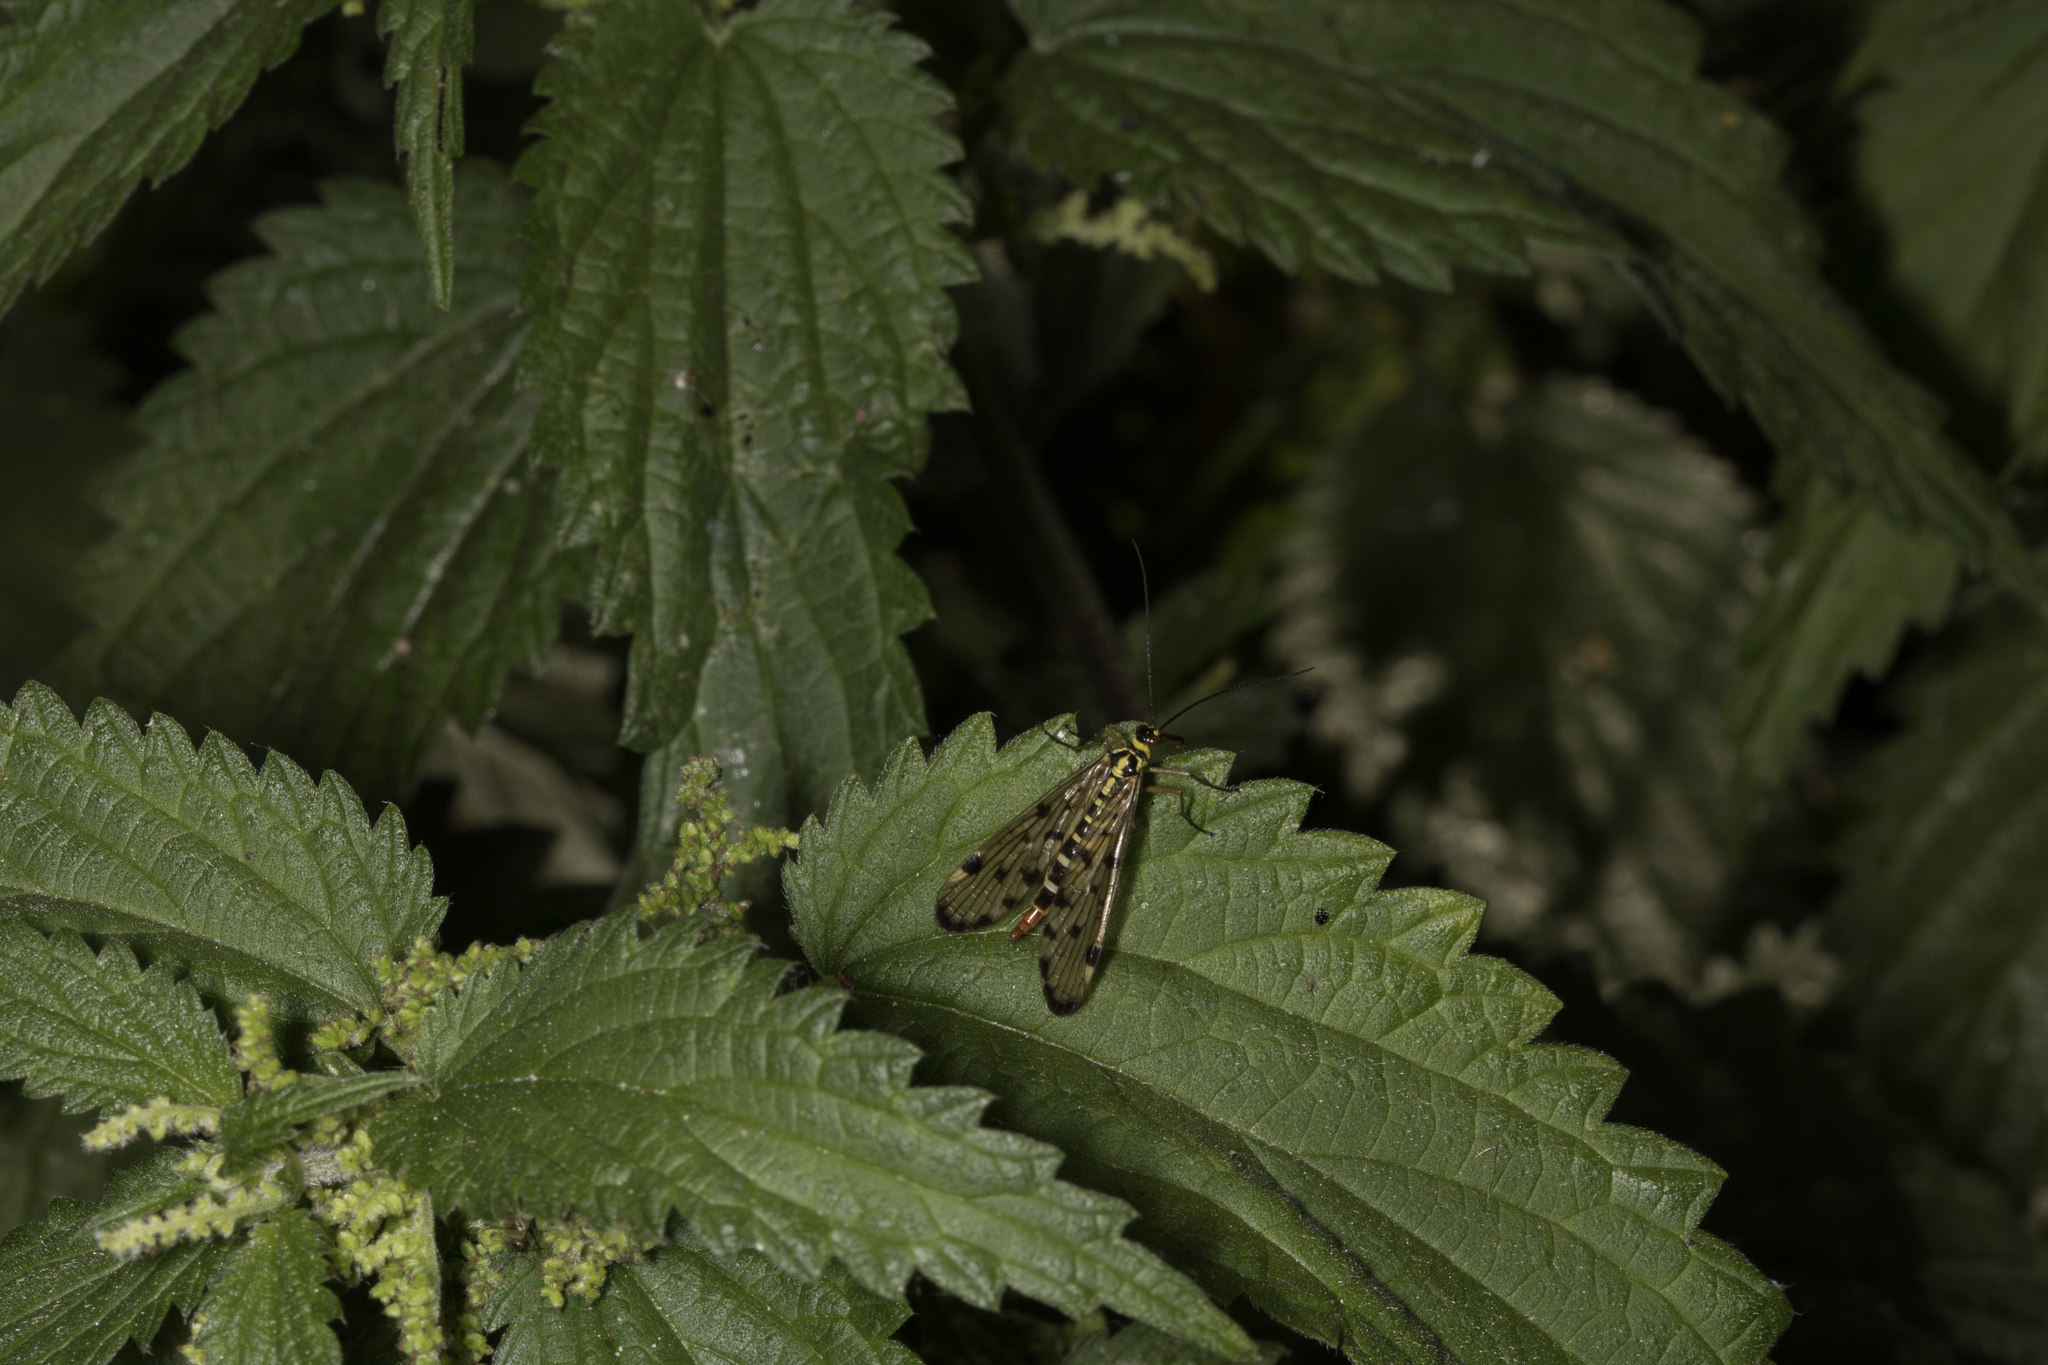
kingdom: Animalia
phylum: Arthropoda
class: Insecta
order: Mecoptera
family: Panorpidae
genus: Panorpa
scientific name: Panorpa germanica
